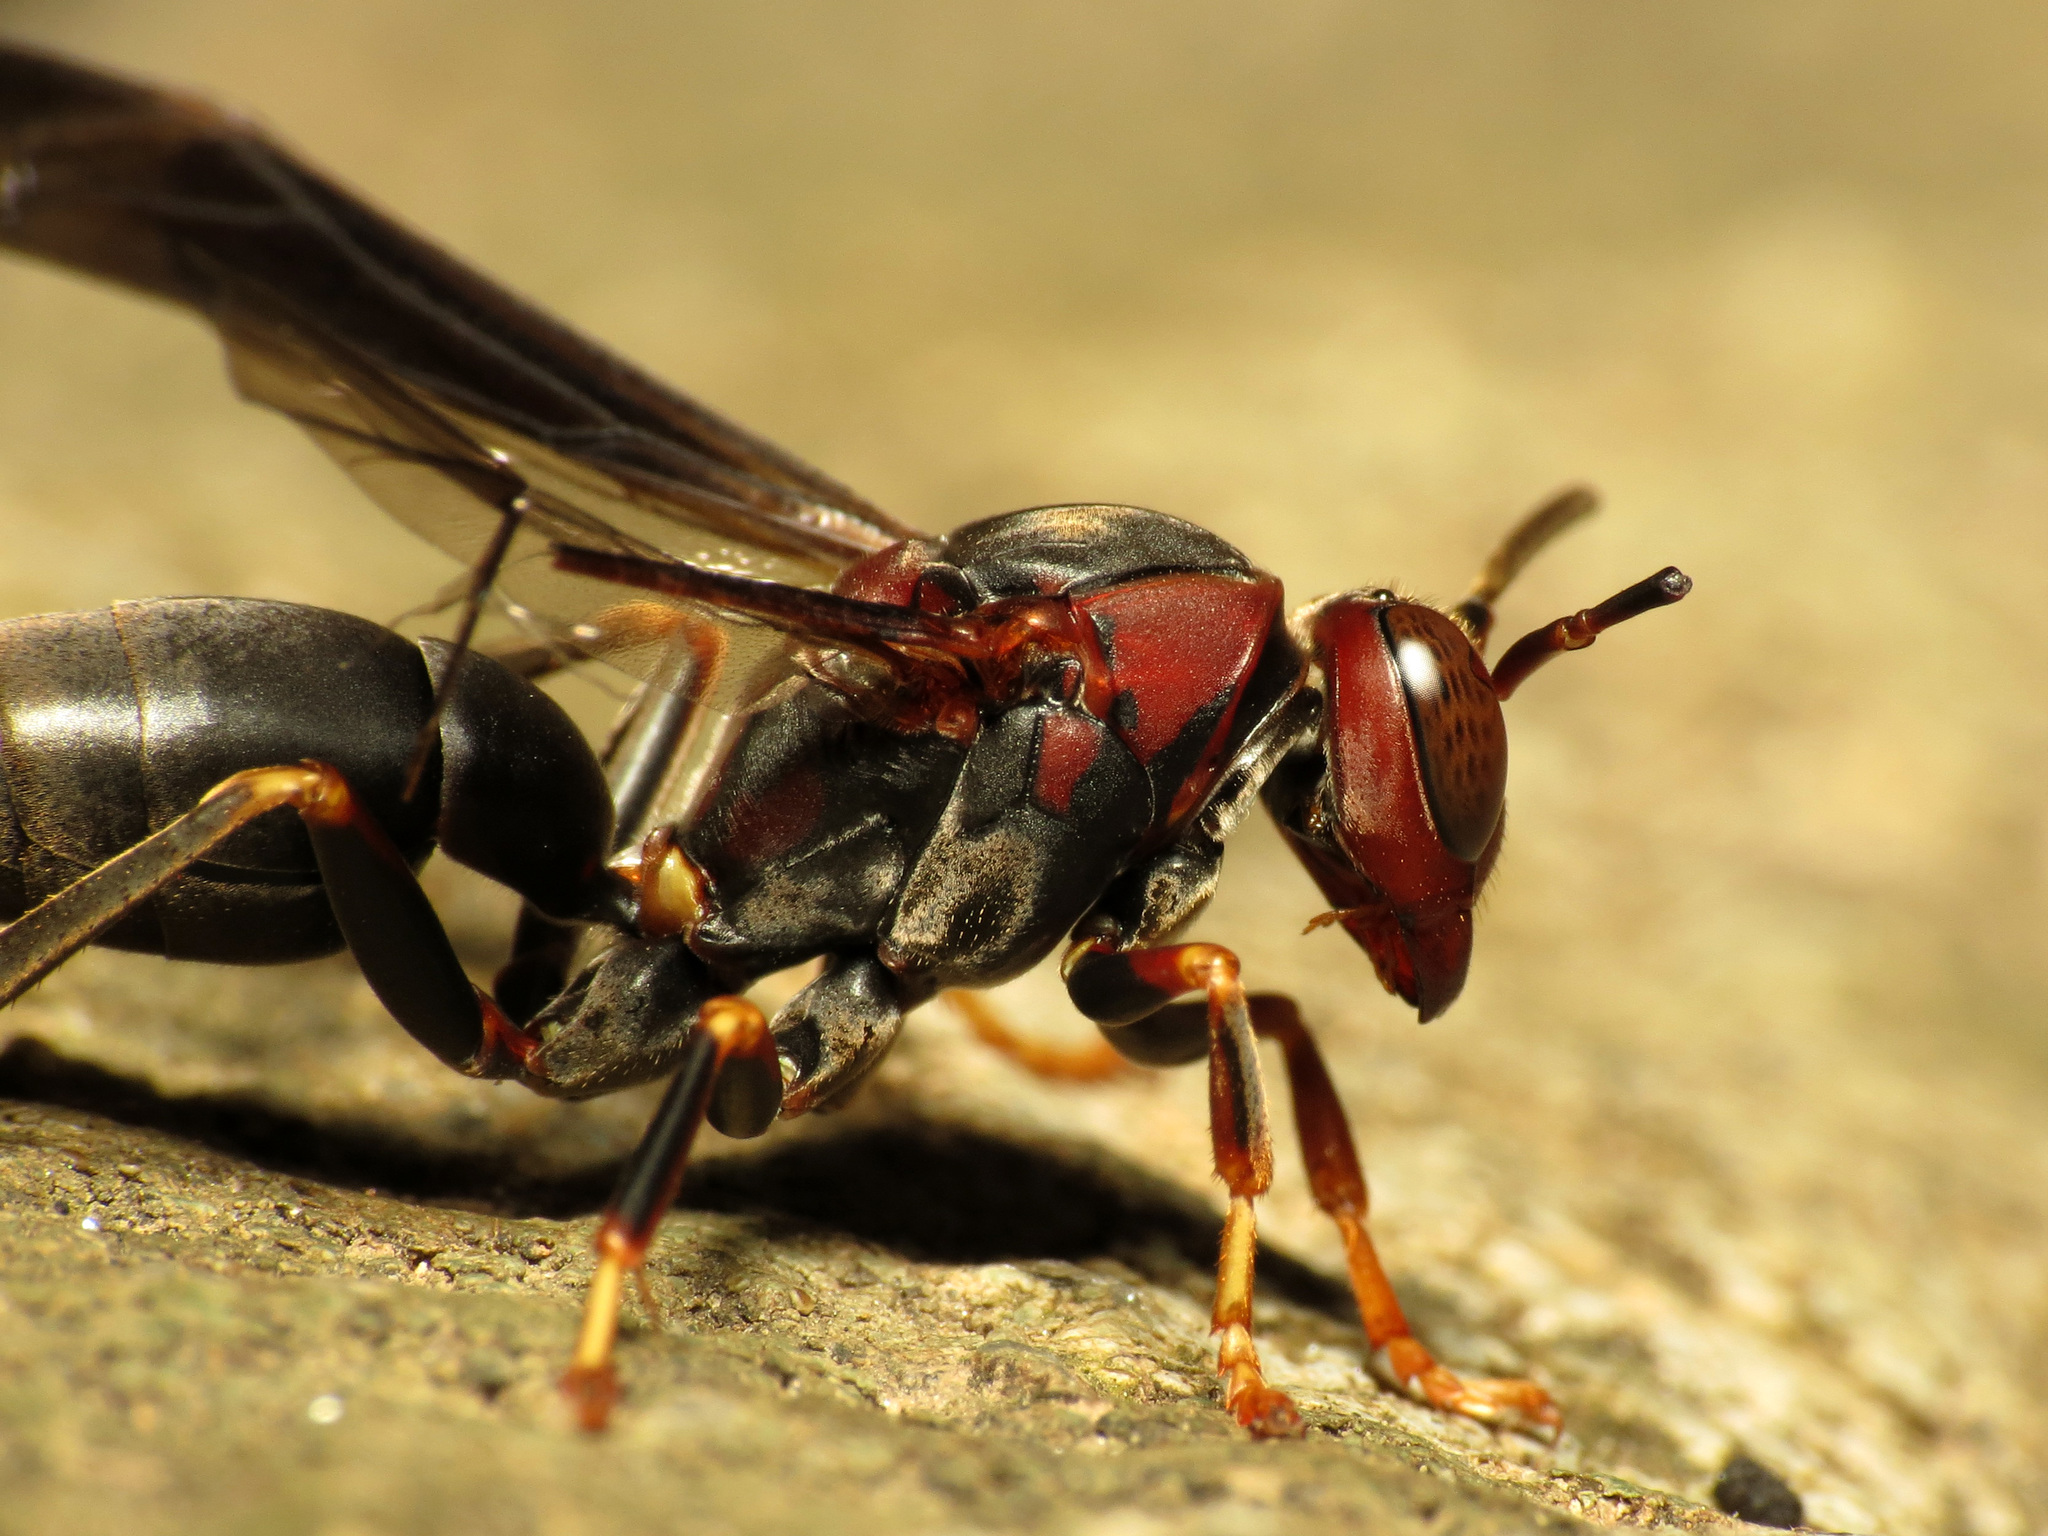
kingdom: Animalia
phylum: Arthropoda
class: Insecta
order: Hymenoptera
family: Eumenidae
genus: Polistes
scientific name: Polistes metricus
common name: Metric paper wasp
